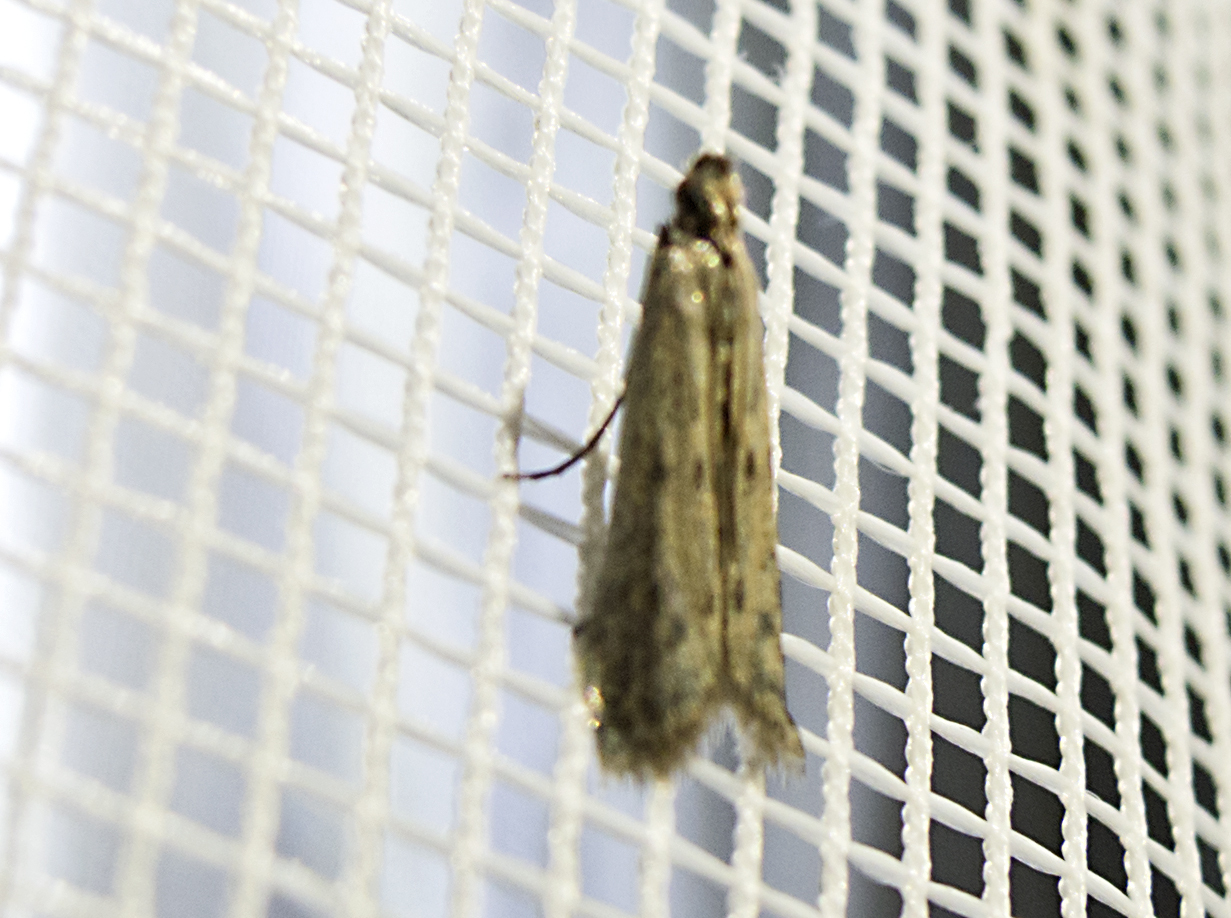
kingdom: Animalia
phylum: Arthropoda
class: Insecta
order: Lepidoptera
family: Pyralidae
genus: Phycitodes
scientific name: Phycitodes
